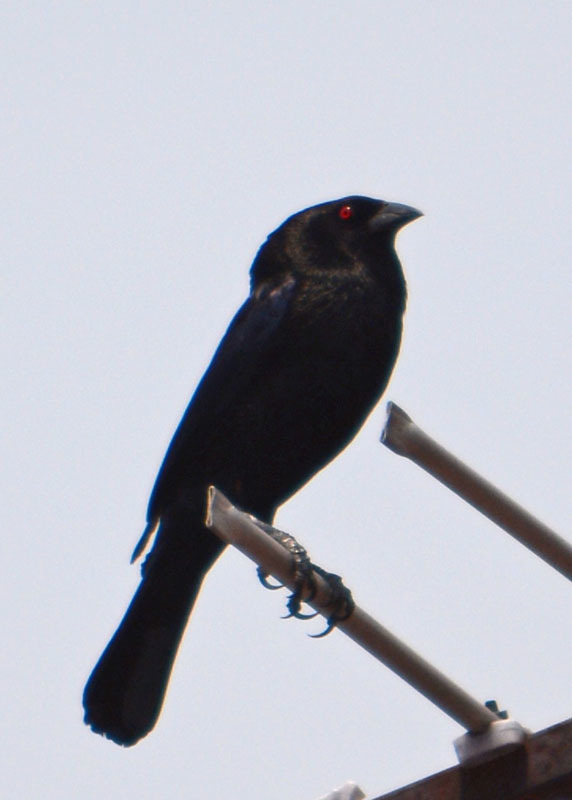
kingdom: Animalia
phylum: Chordata
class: Aves
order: Passeriformes
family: Icteridae
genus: Molothrus
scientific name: Molothrus aeneus
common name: Bronzed cowbird
